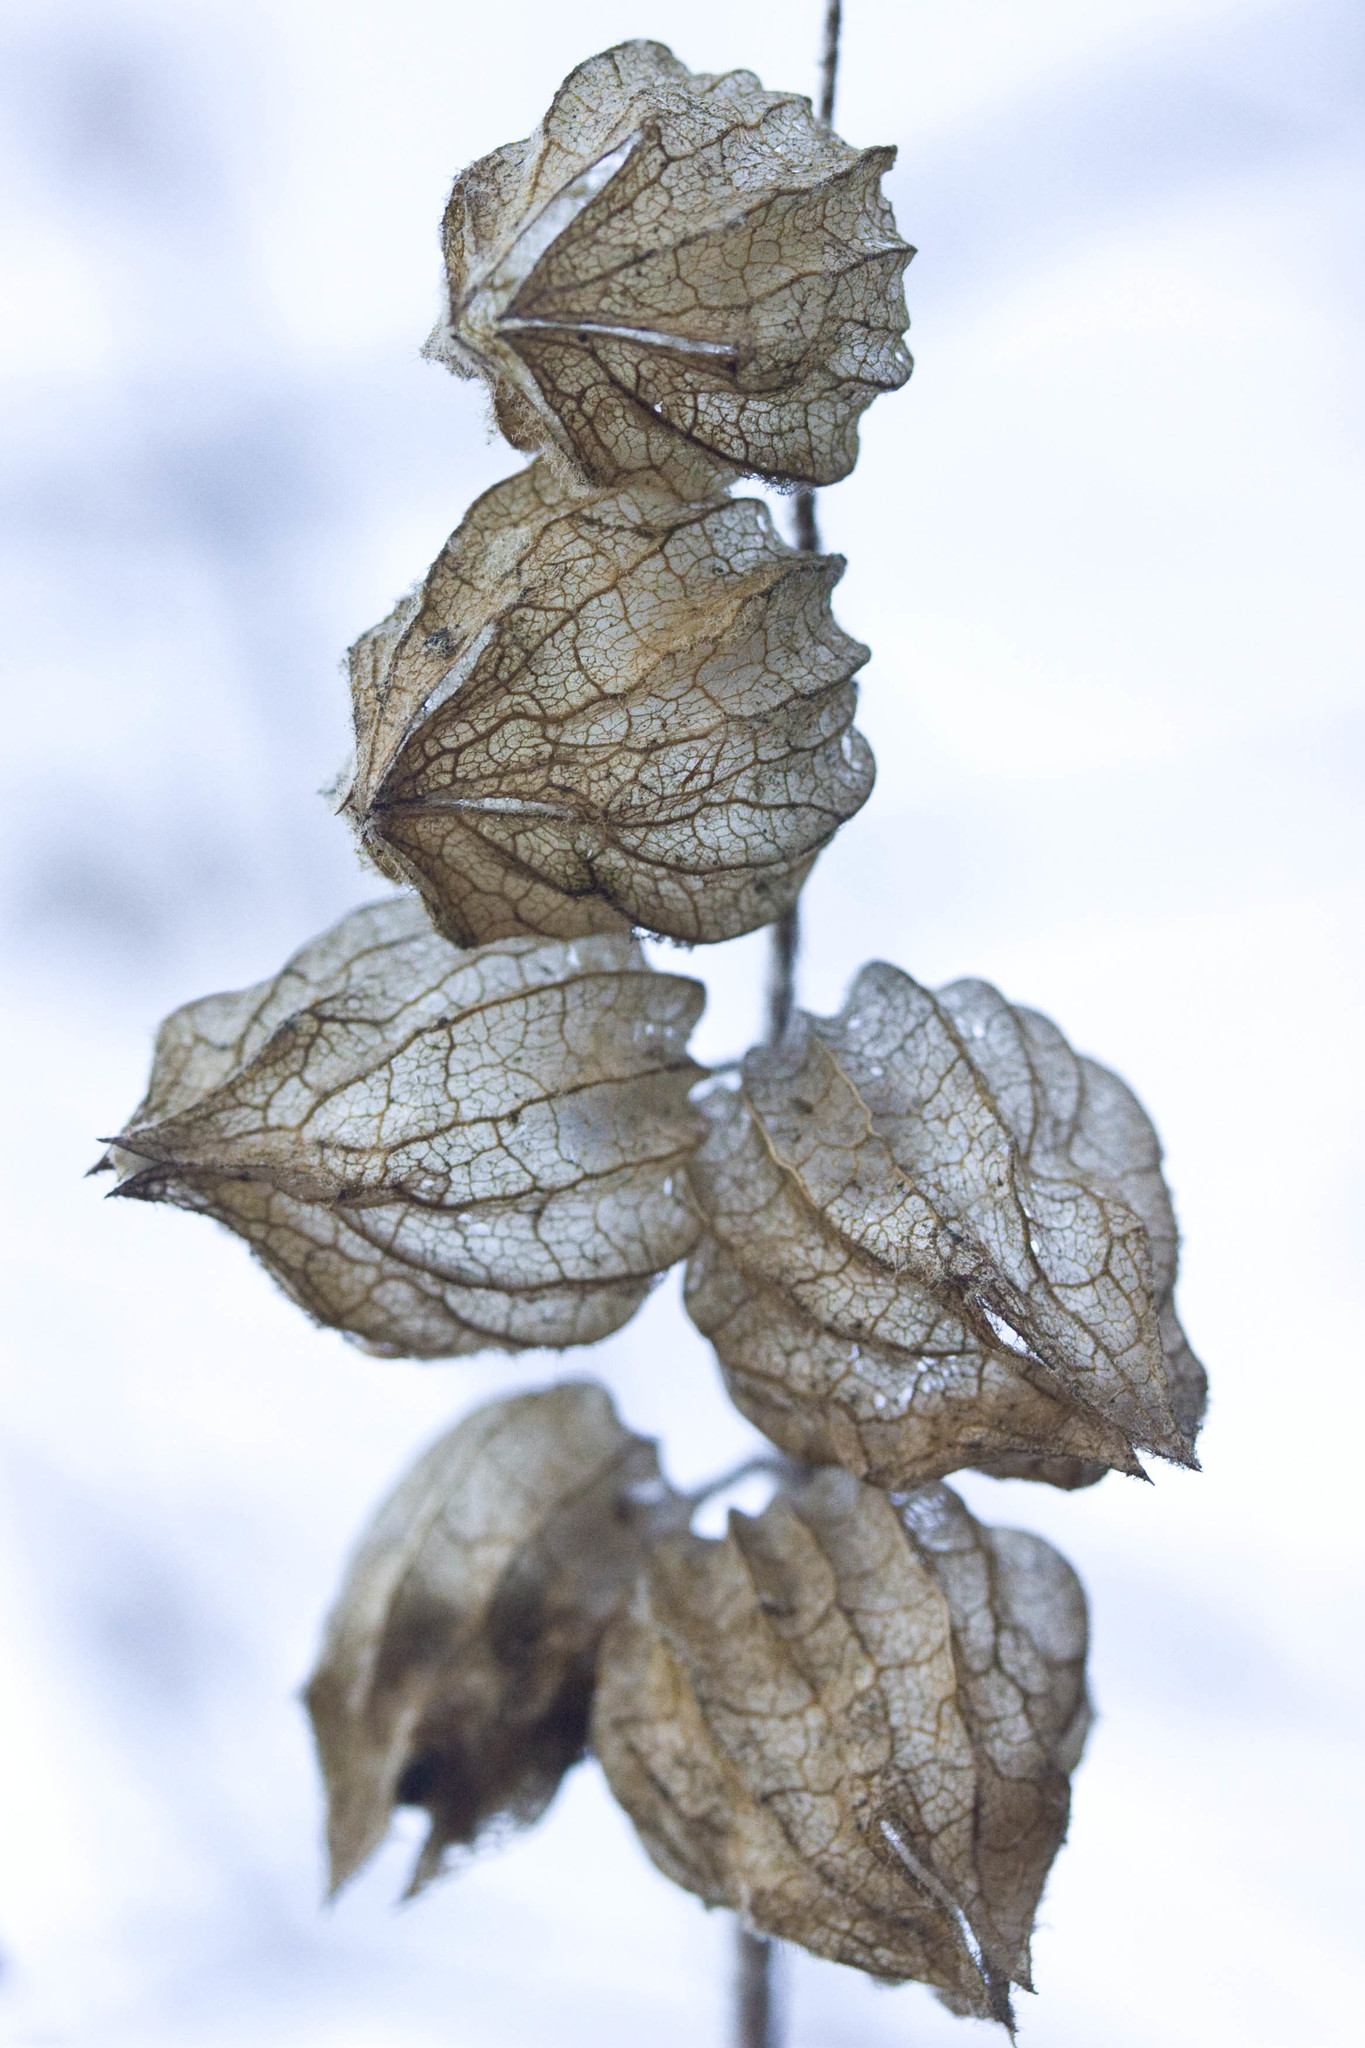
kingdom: Plantae
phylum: Tracheophyta
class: Magnoliopsida
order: Lamiales
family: Lamiaceae
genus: Lepechinia
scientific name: Lepechinia calycina
